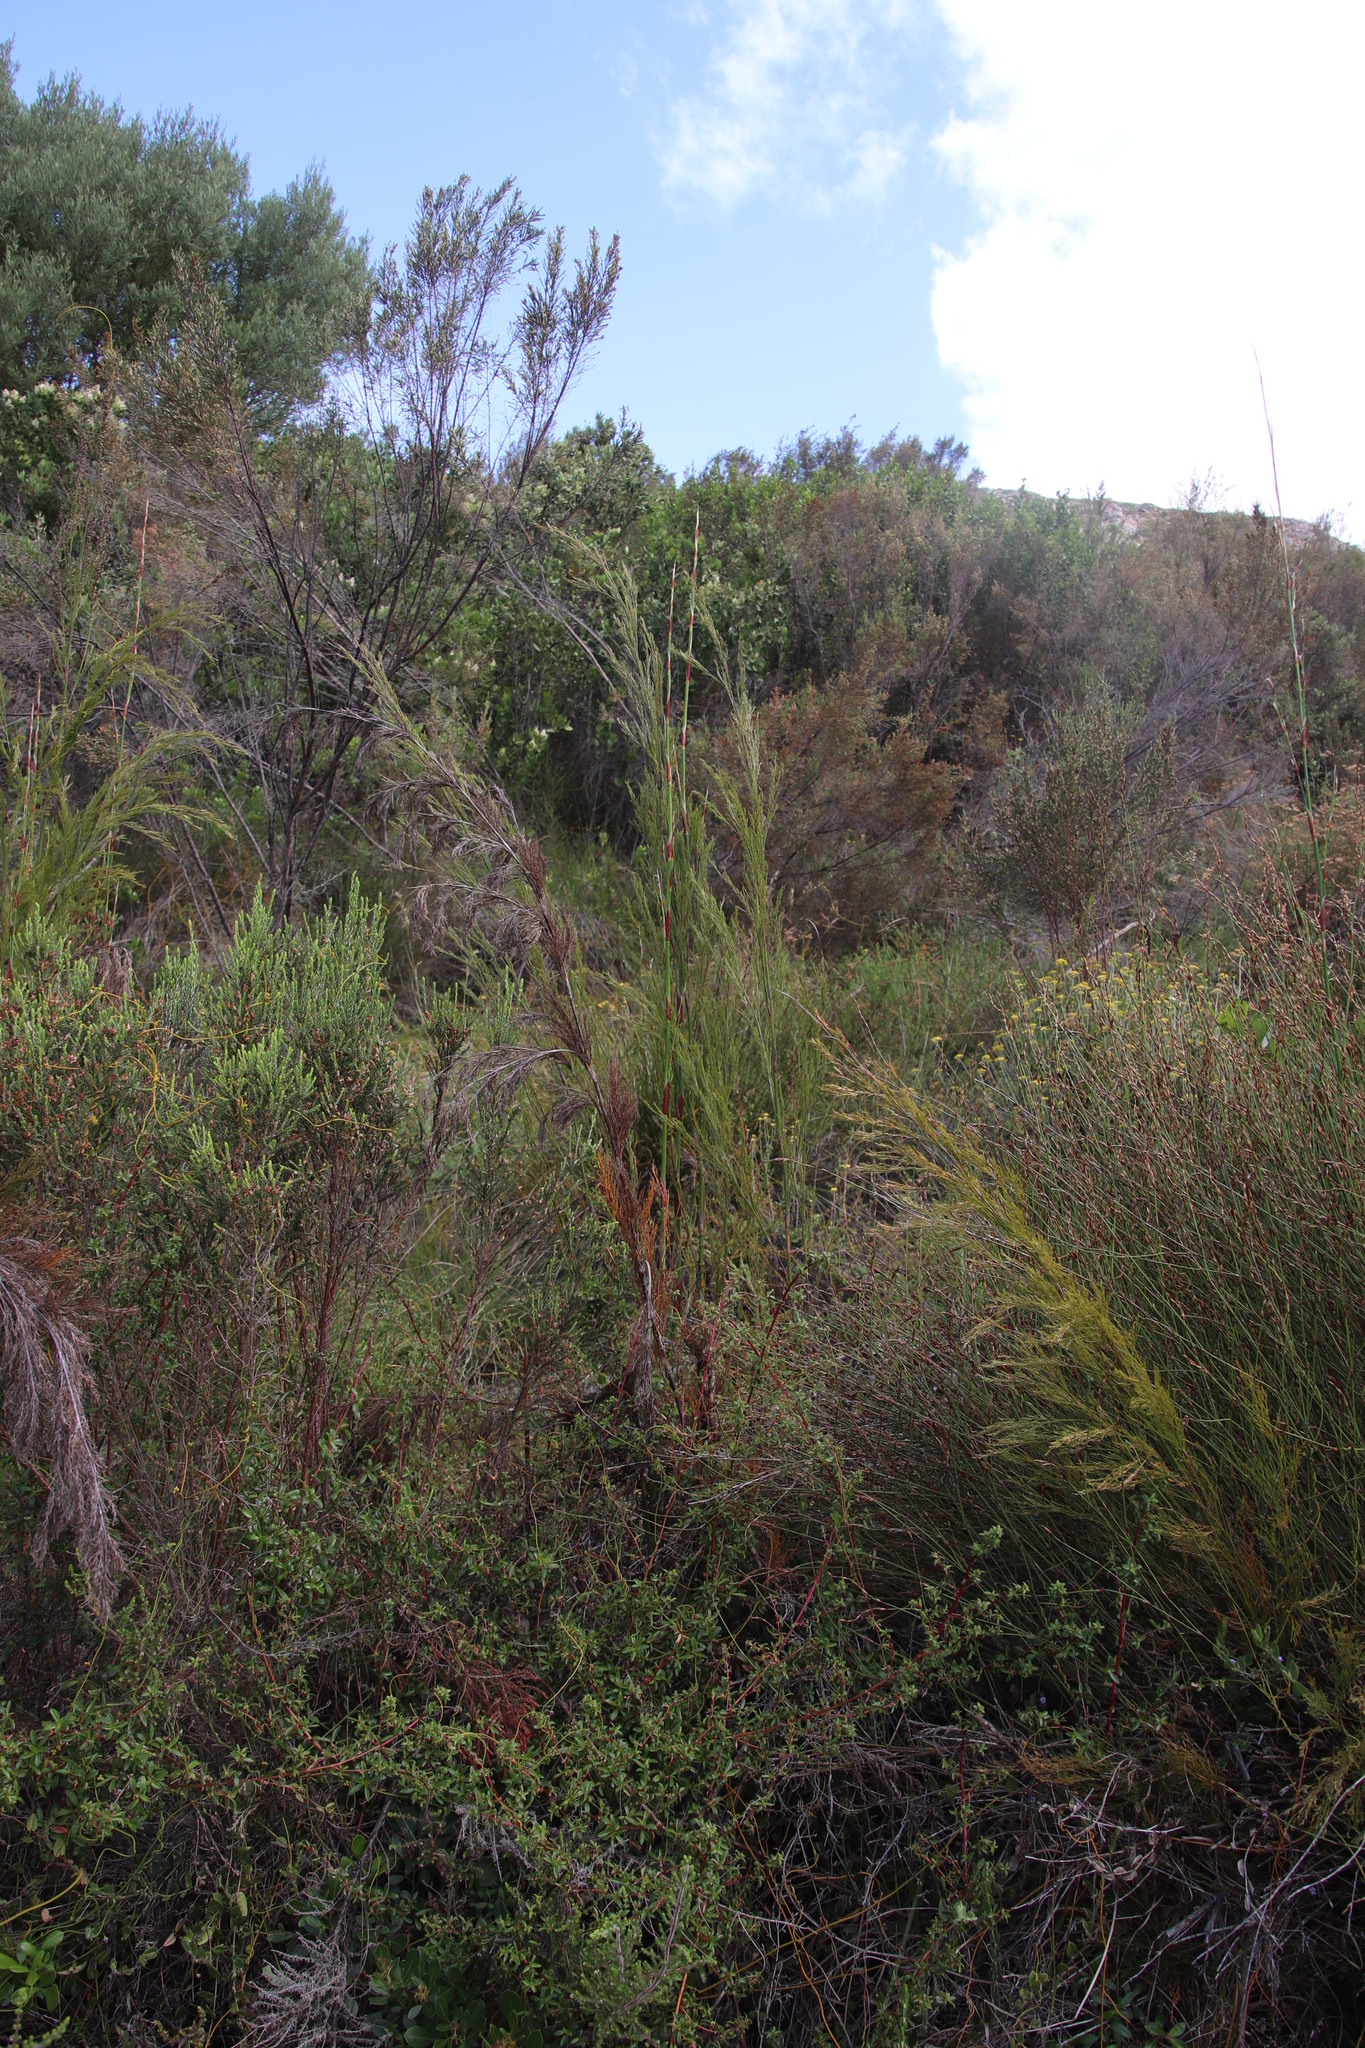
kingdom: Plantae
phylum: Tracheophyta
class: Liliopsida
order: Poales
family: Restionaceae
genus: Restio
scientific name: Restio paniculatus
